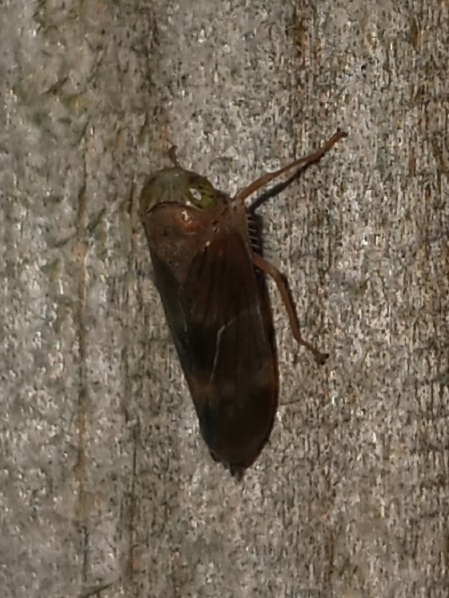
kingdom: Animalia
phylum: Arthropoda
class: Insecta
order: Hemiptera
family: Cicadellidae
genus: Jikradia
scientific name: Jikradia olitoria
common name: Coppery leafhopper
